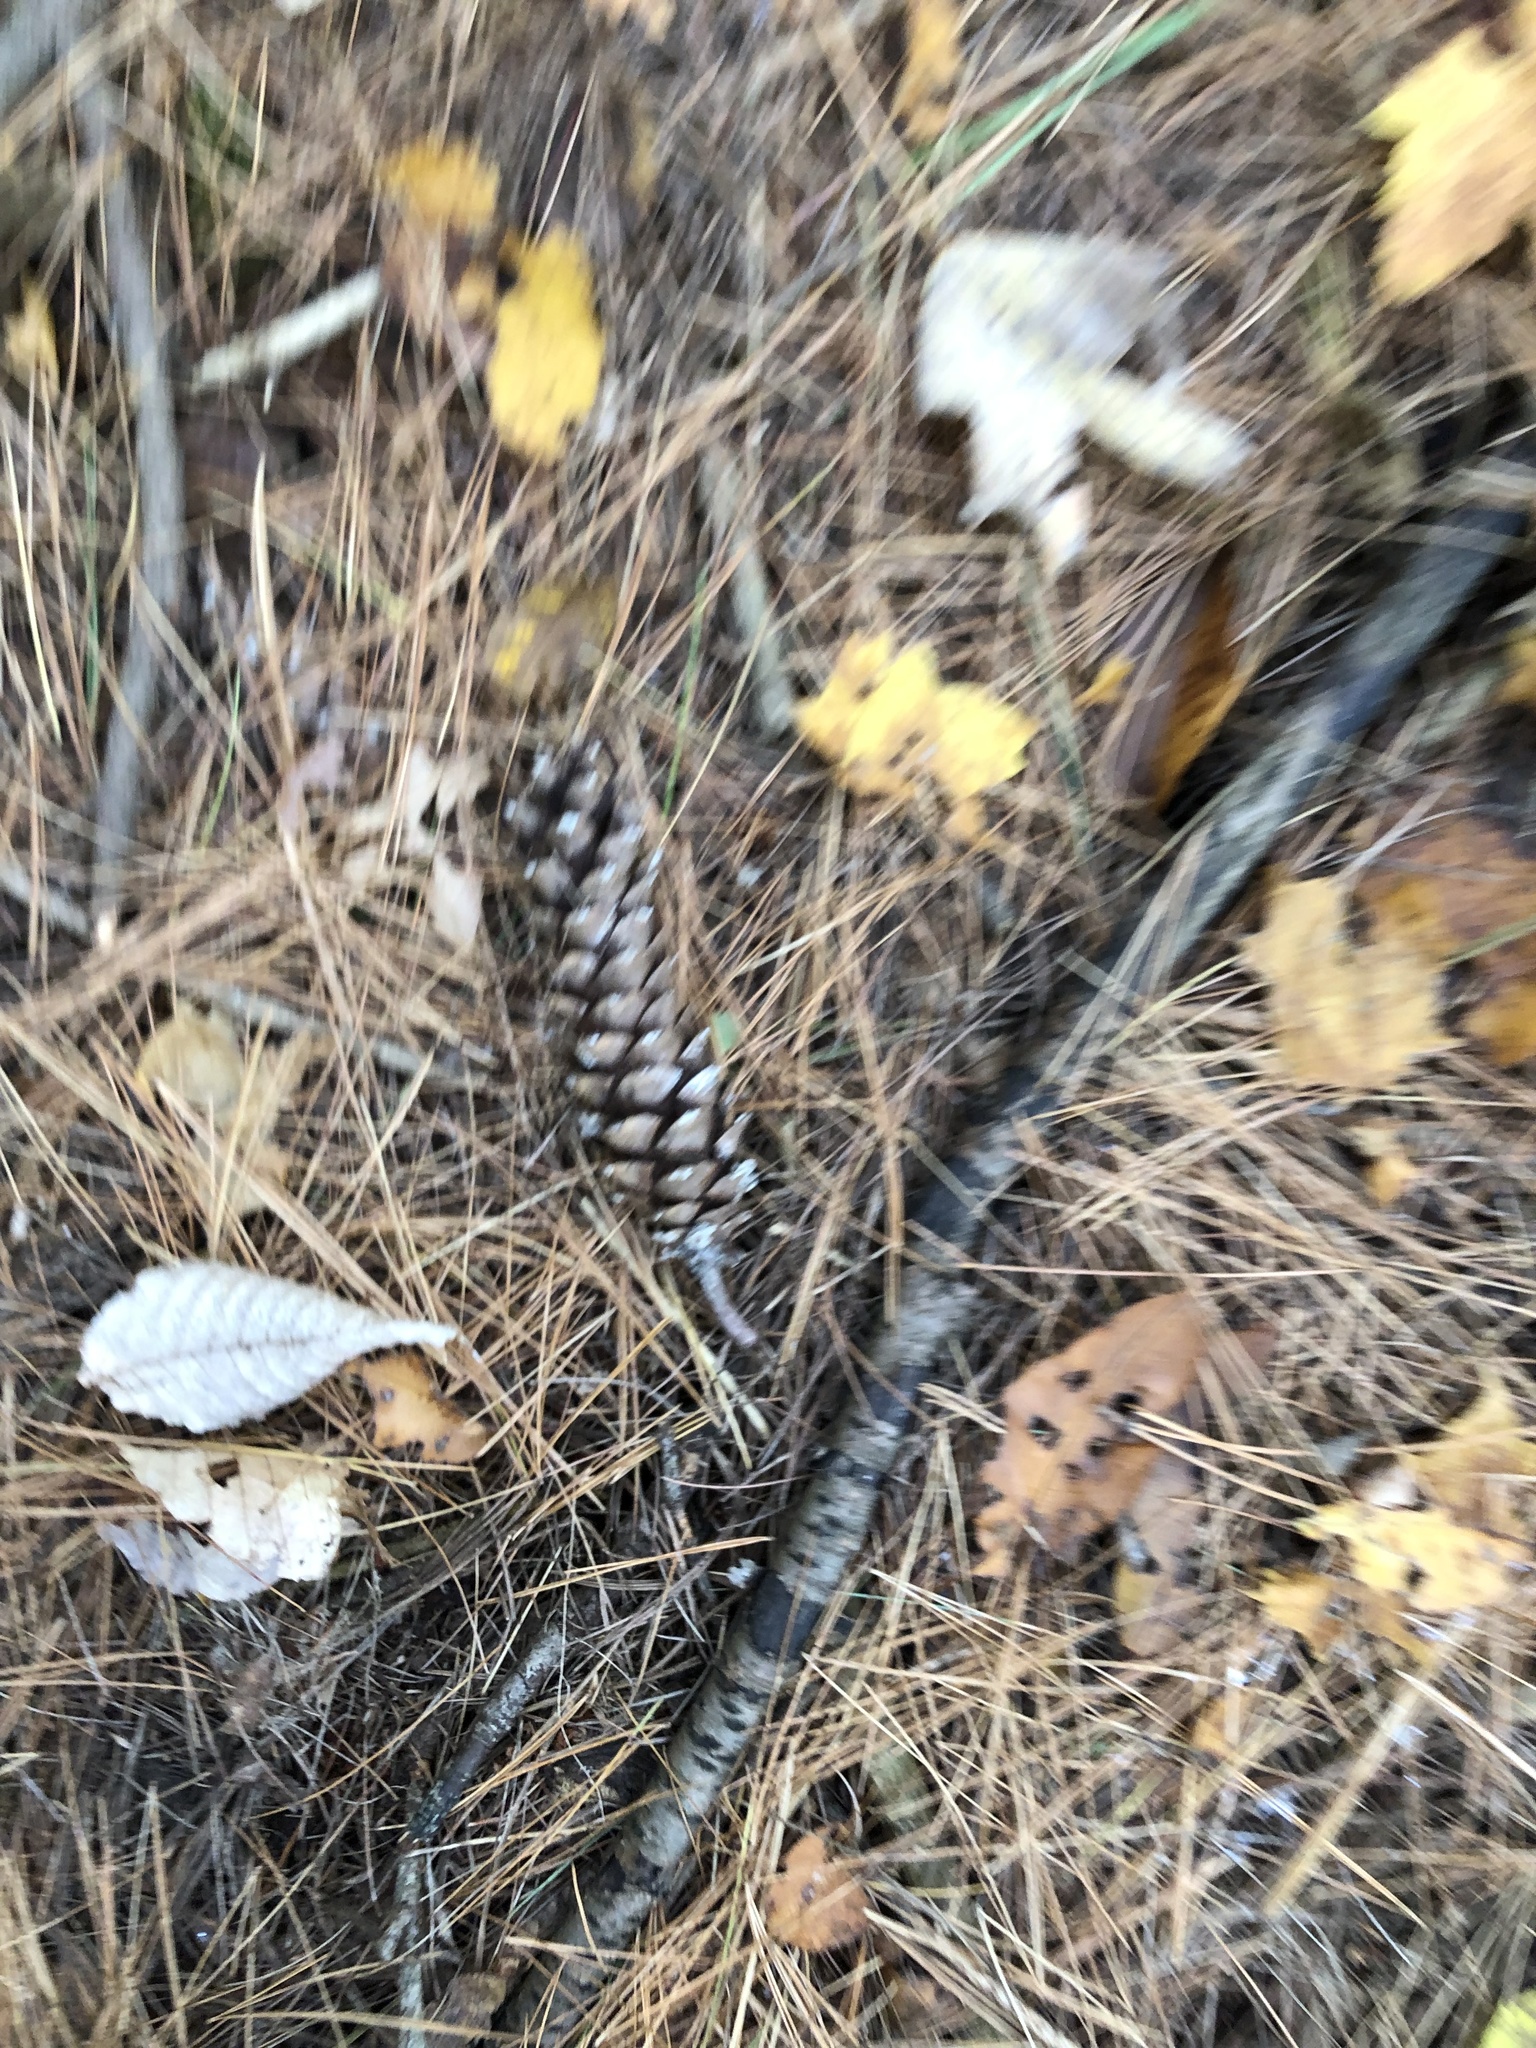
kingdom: Plantae
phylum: Tracheophyta
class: Pinopsida
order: Pinales
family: Pinaceae
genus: Pinus
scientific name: Pinus strobus
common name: Weymouth pine
